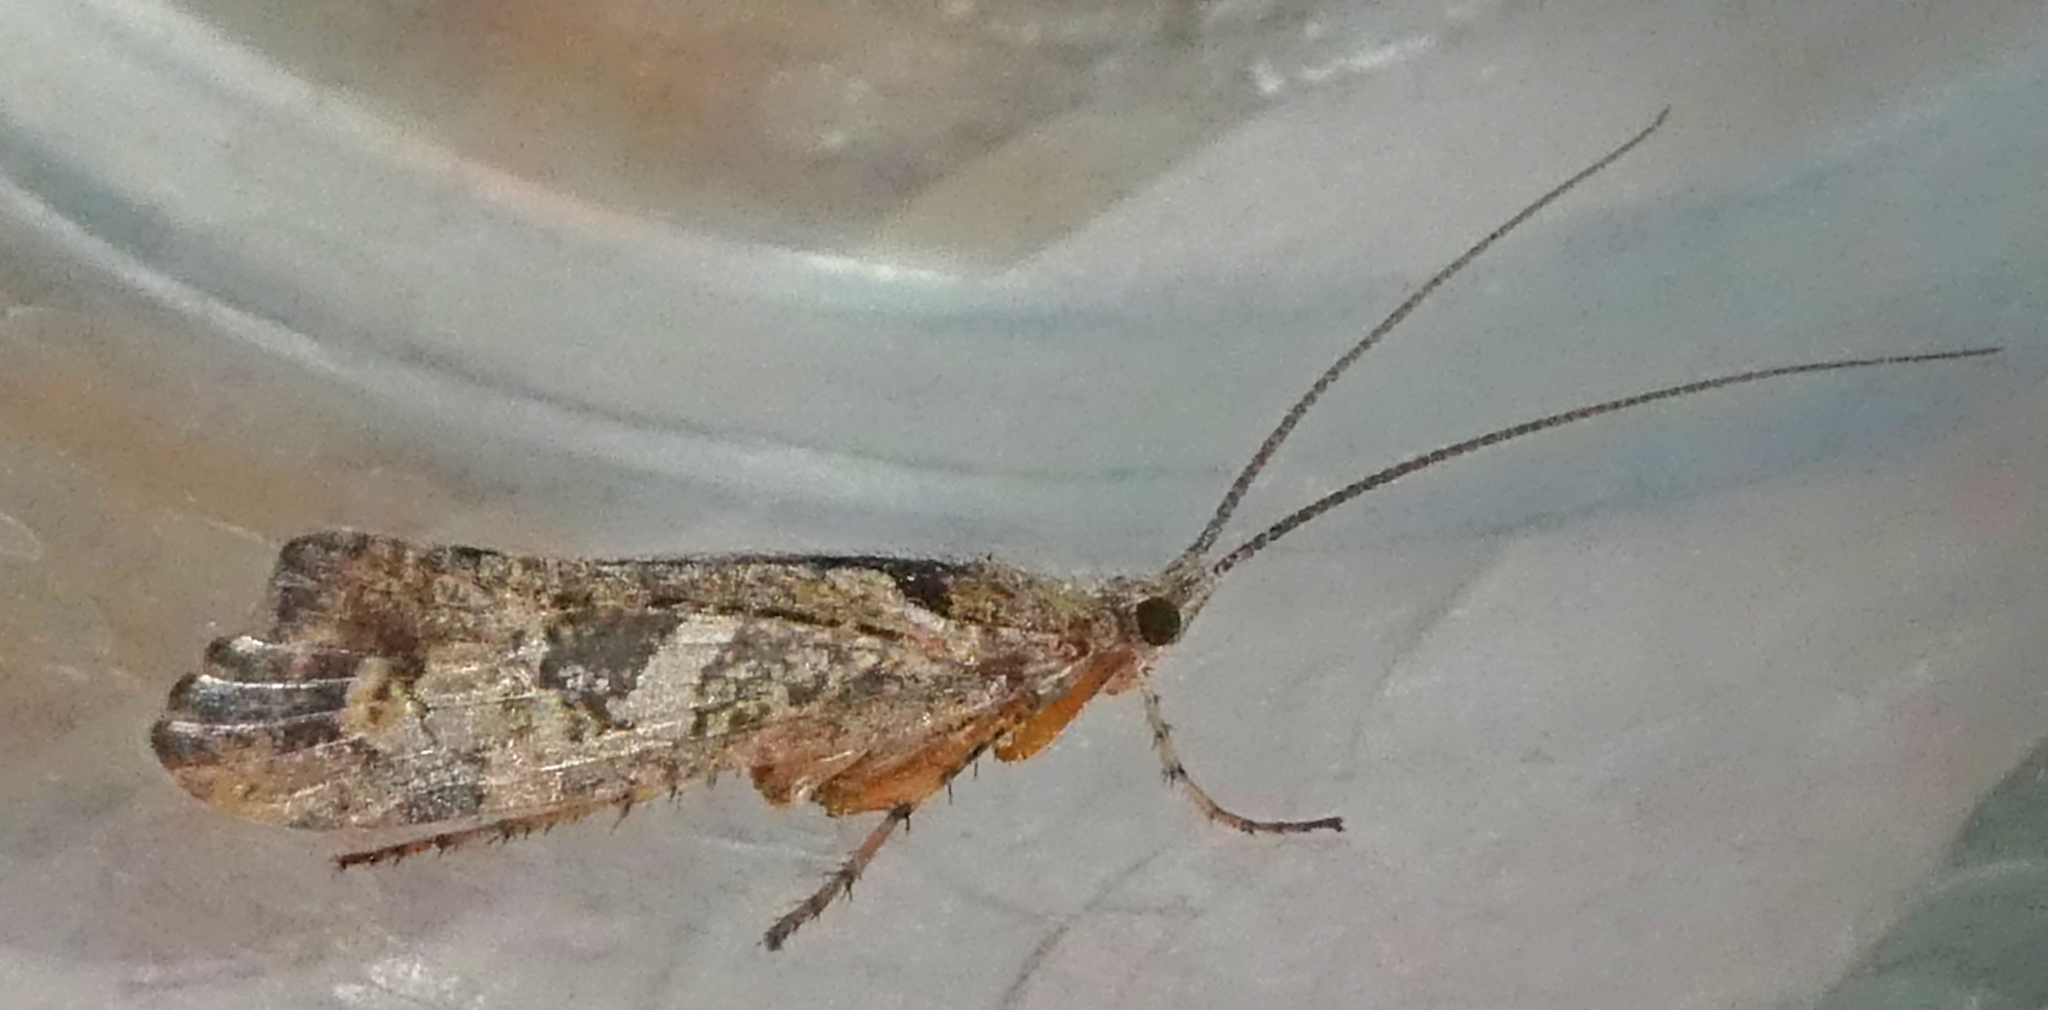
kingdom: Animalia
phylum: Arthropoda
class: Insecta
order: Trichoptera
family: Limnephilidae
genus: Glyphotaelius
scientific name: Glyphotaelius pellucidus
